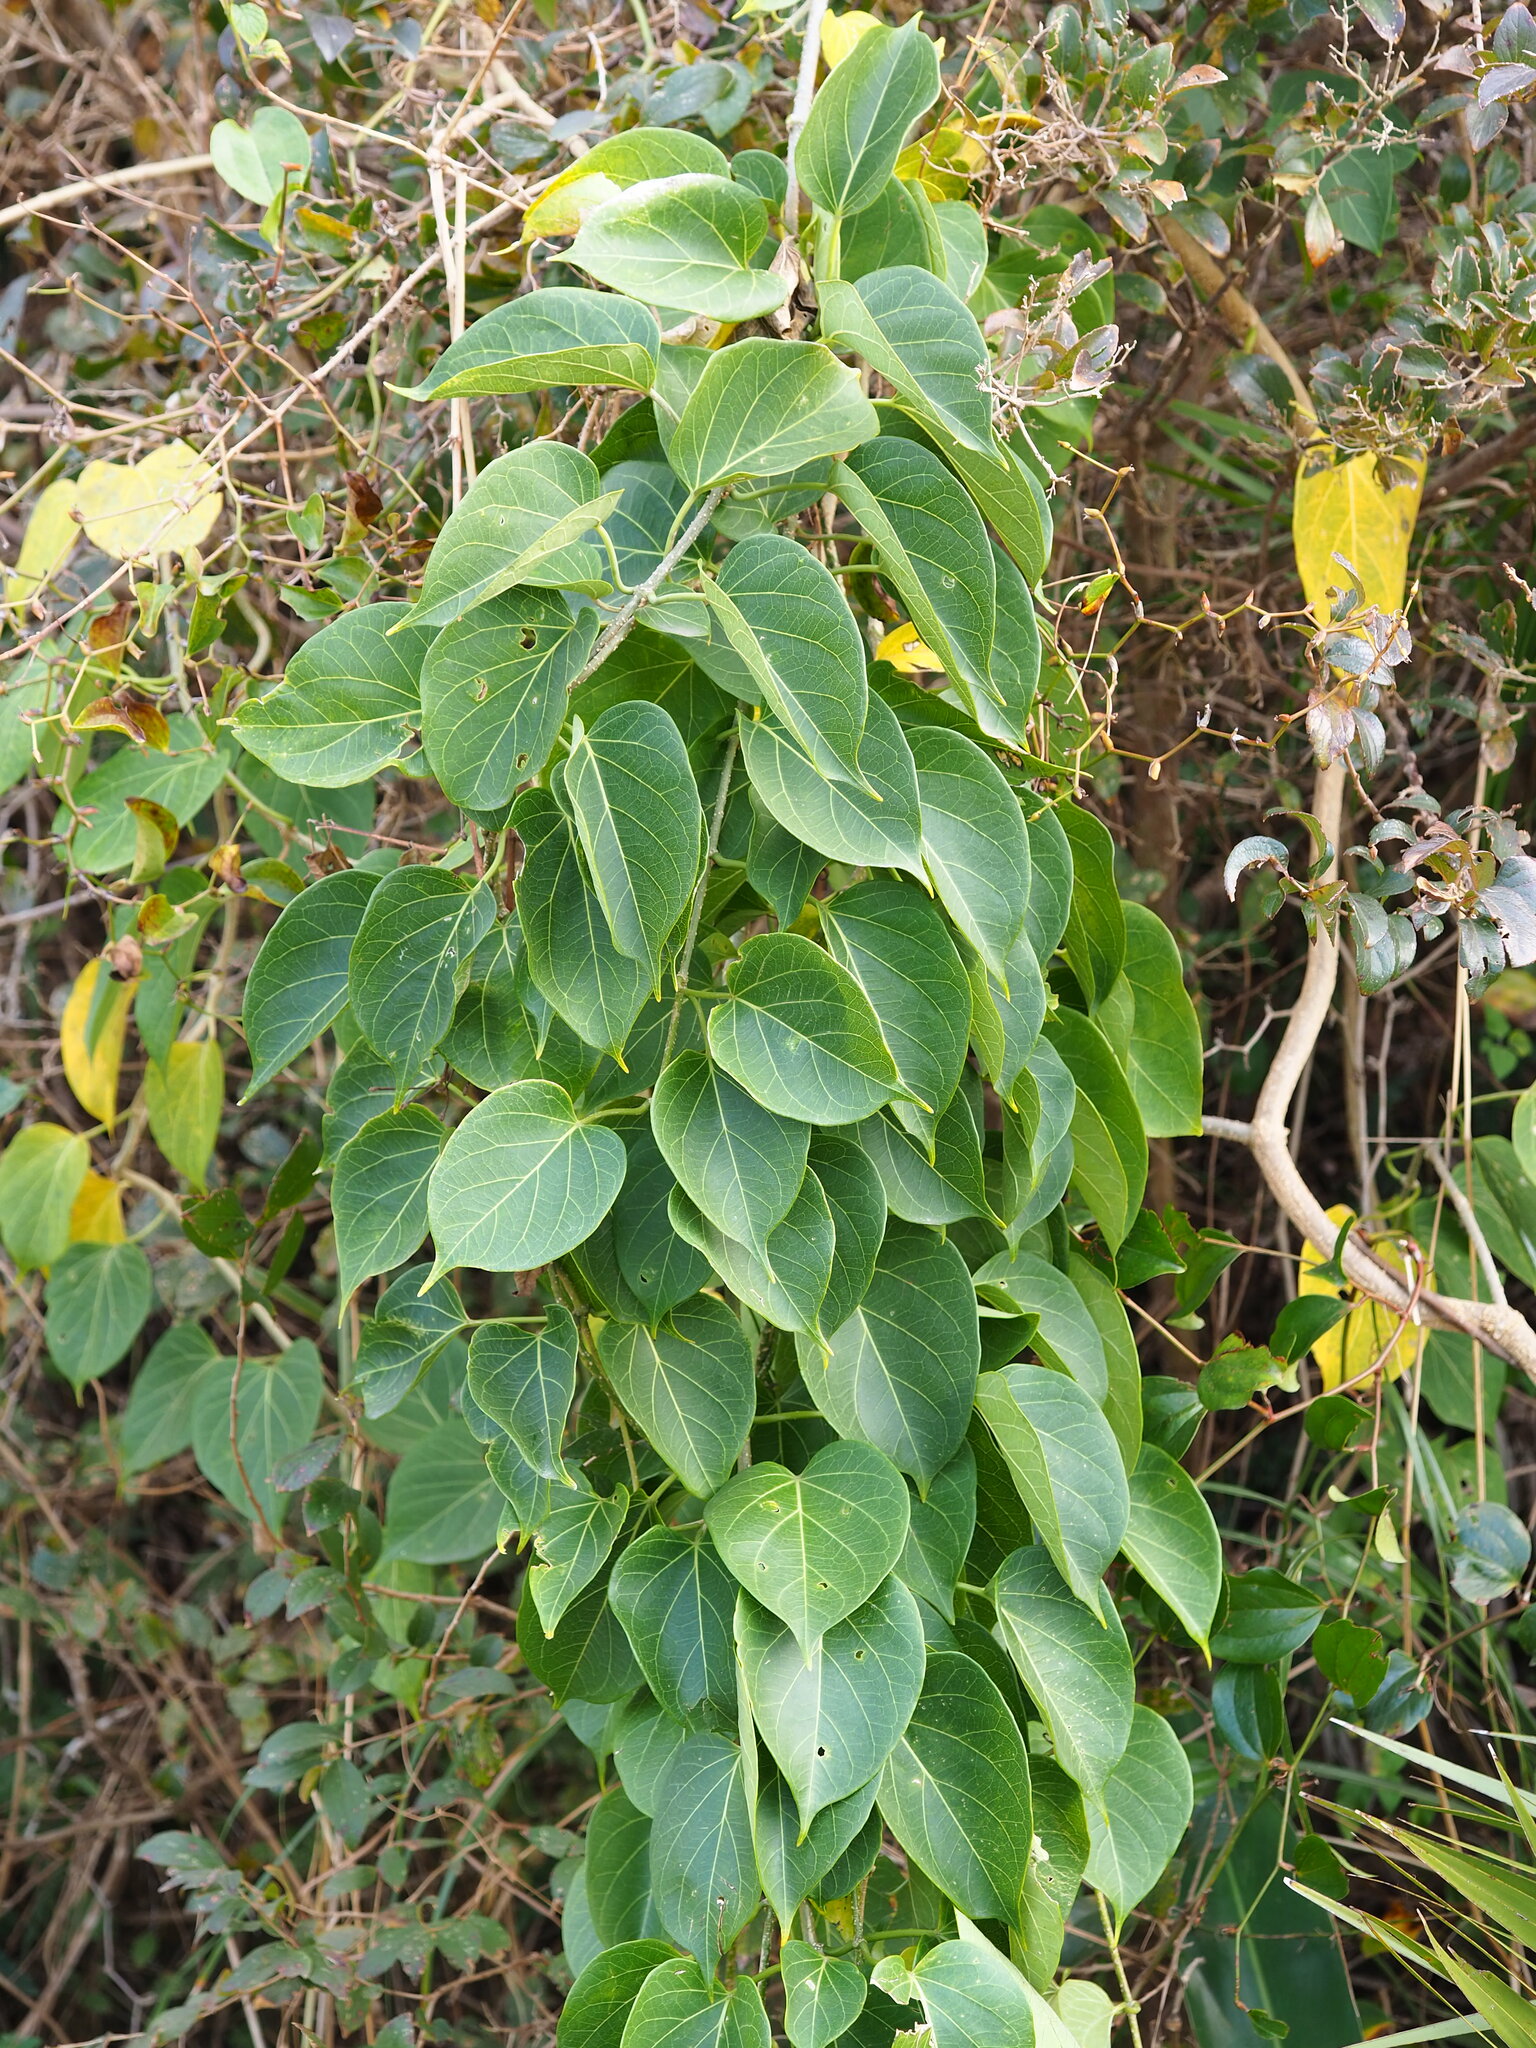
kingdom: Plantae
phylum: Tracheophyta
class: Magnoliopsida
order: Gentianales
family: Apocynaceae
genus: Stephanotis
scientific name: Stephanotis volubilis
